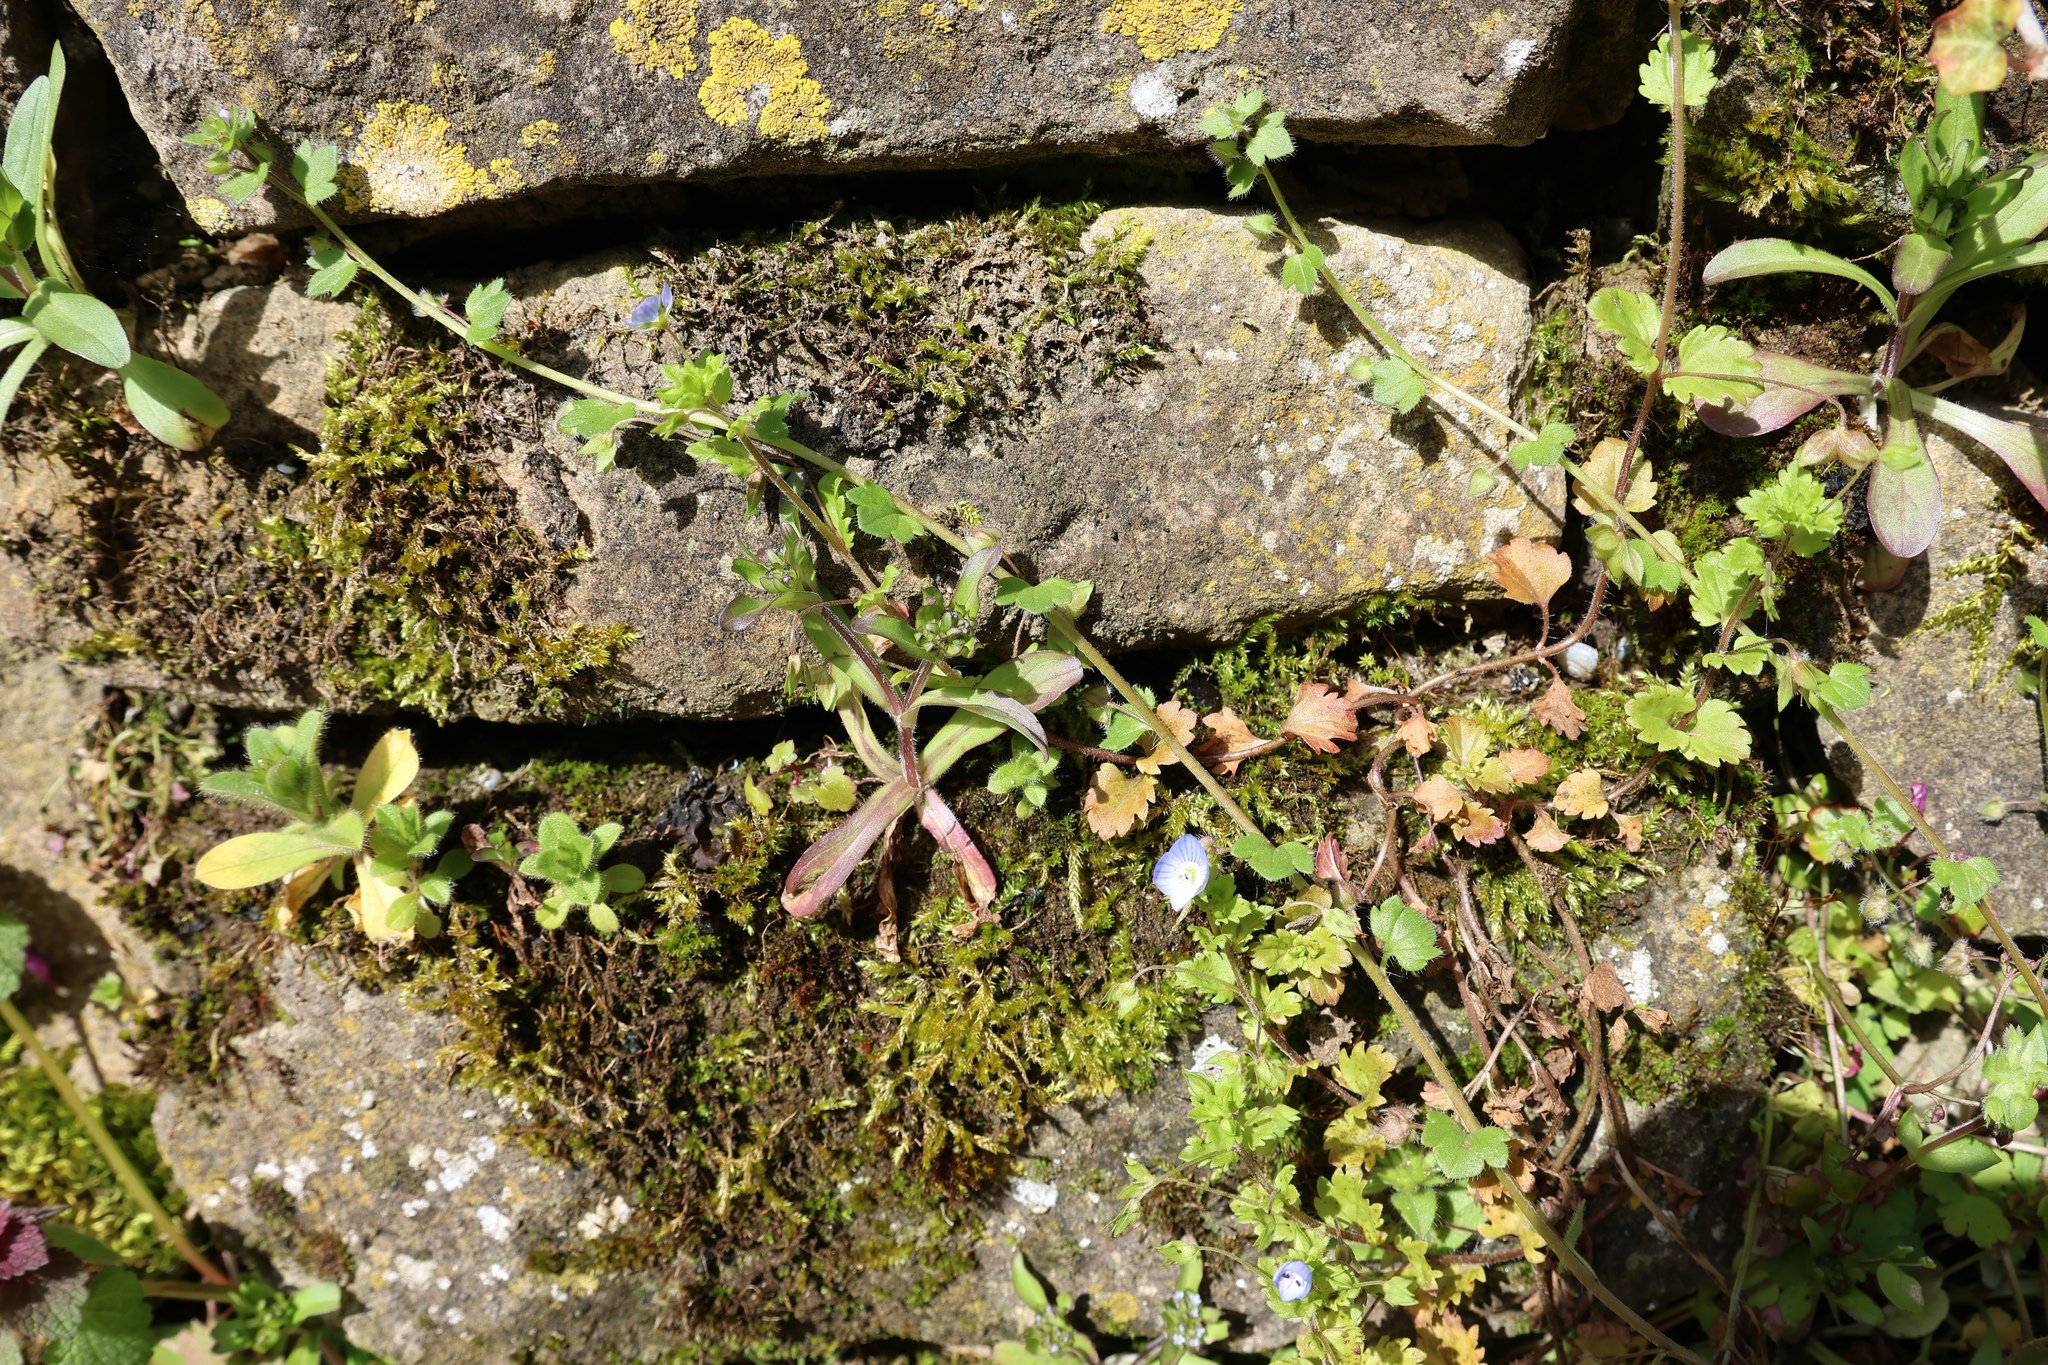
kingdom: Plantae
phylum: Tracheophyta
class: Magnoliopsida
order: Lamiales
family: Plantaginaceae
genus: Veronica
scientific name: Veronica persica
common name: Common field-speedwell
